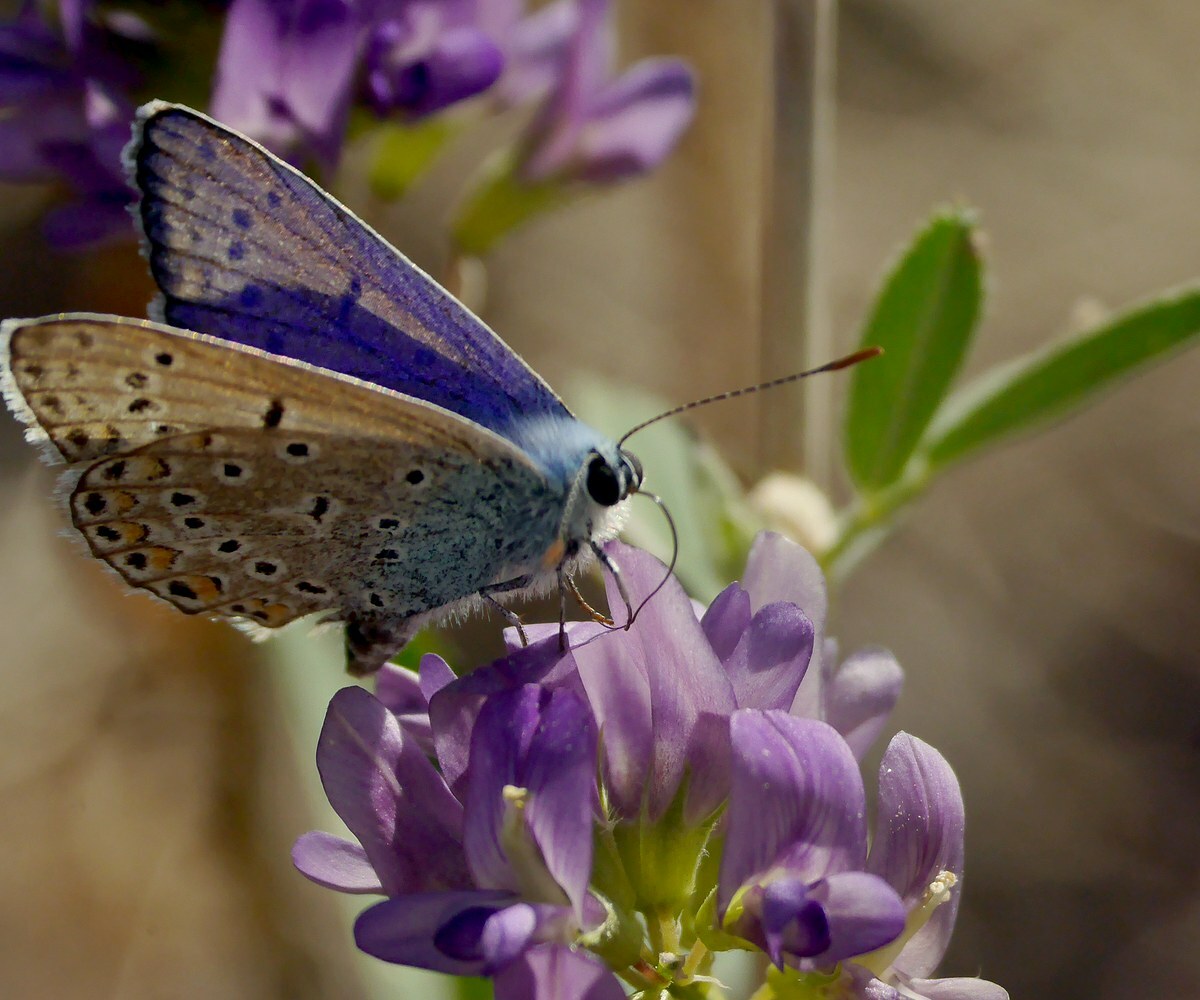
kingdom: Animalia
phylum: Arthropoda
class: Insecta
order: Lepidoptera
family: Lycaenidae
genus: Polyommatus
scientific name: Polyommatus icarus
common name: Common blue
